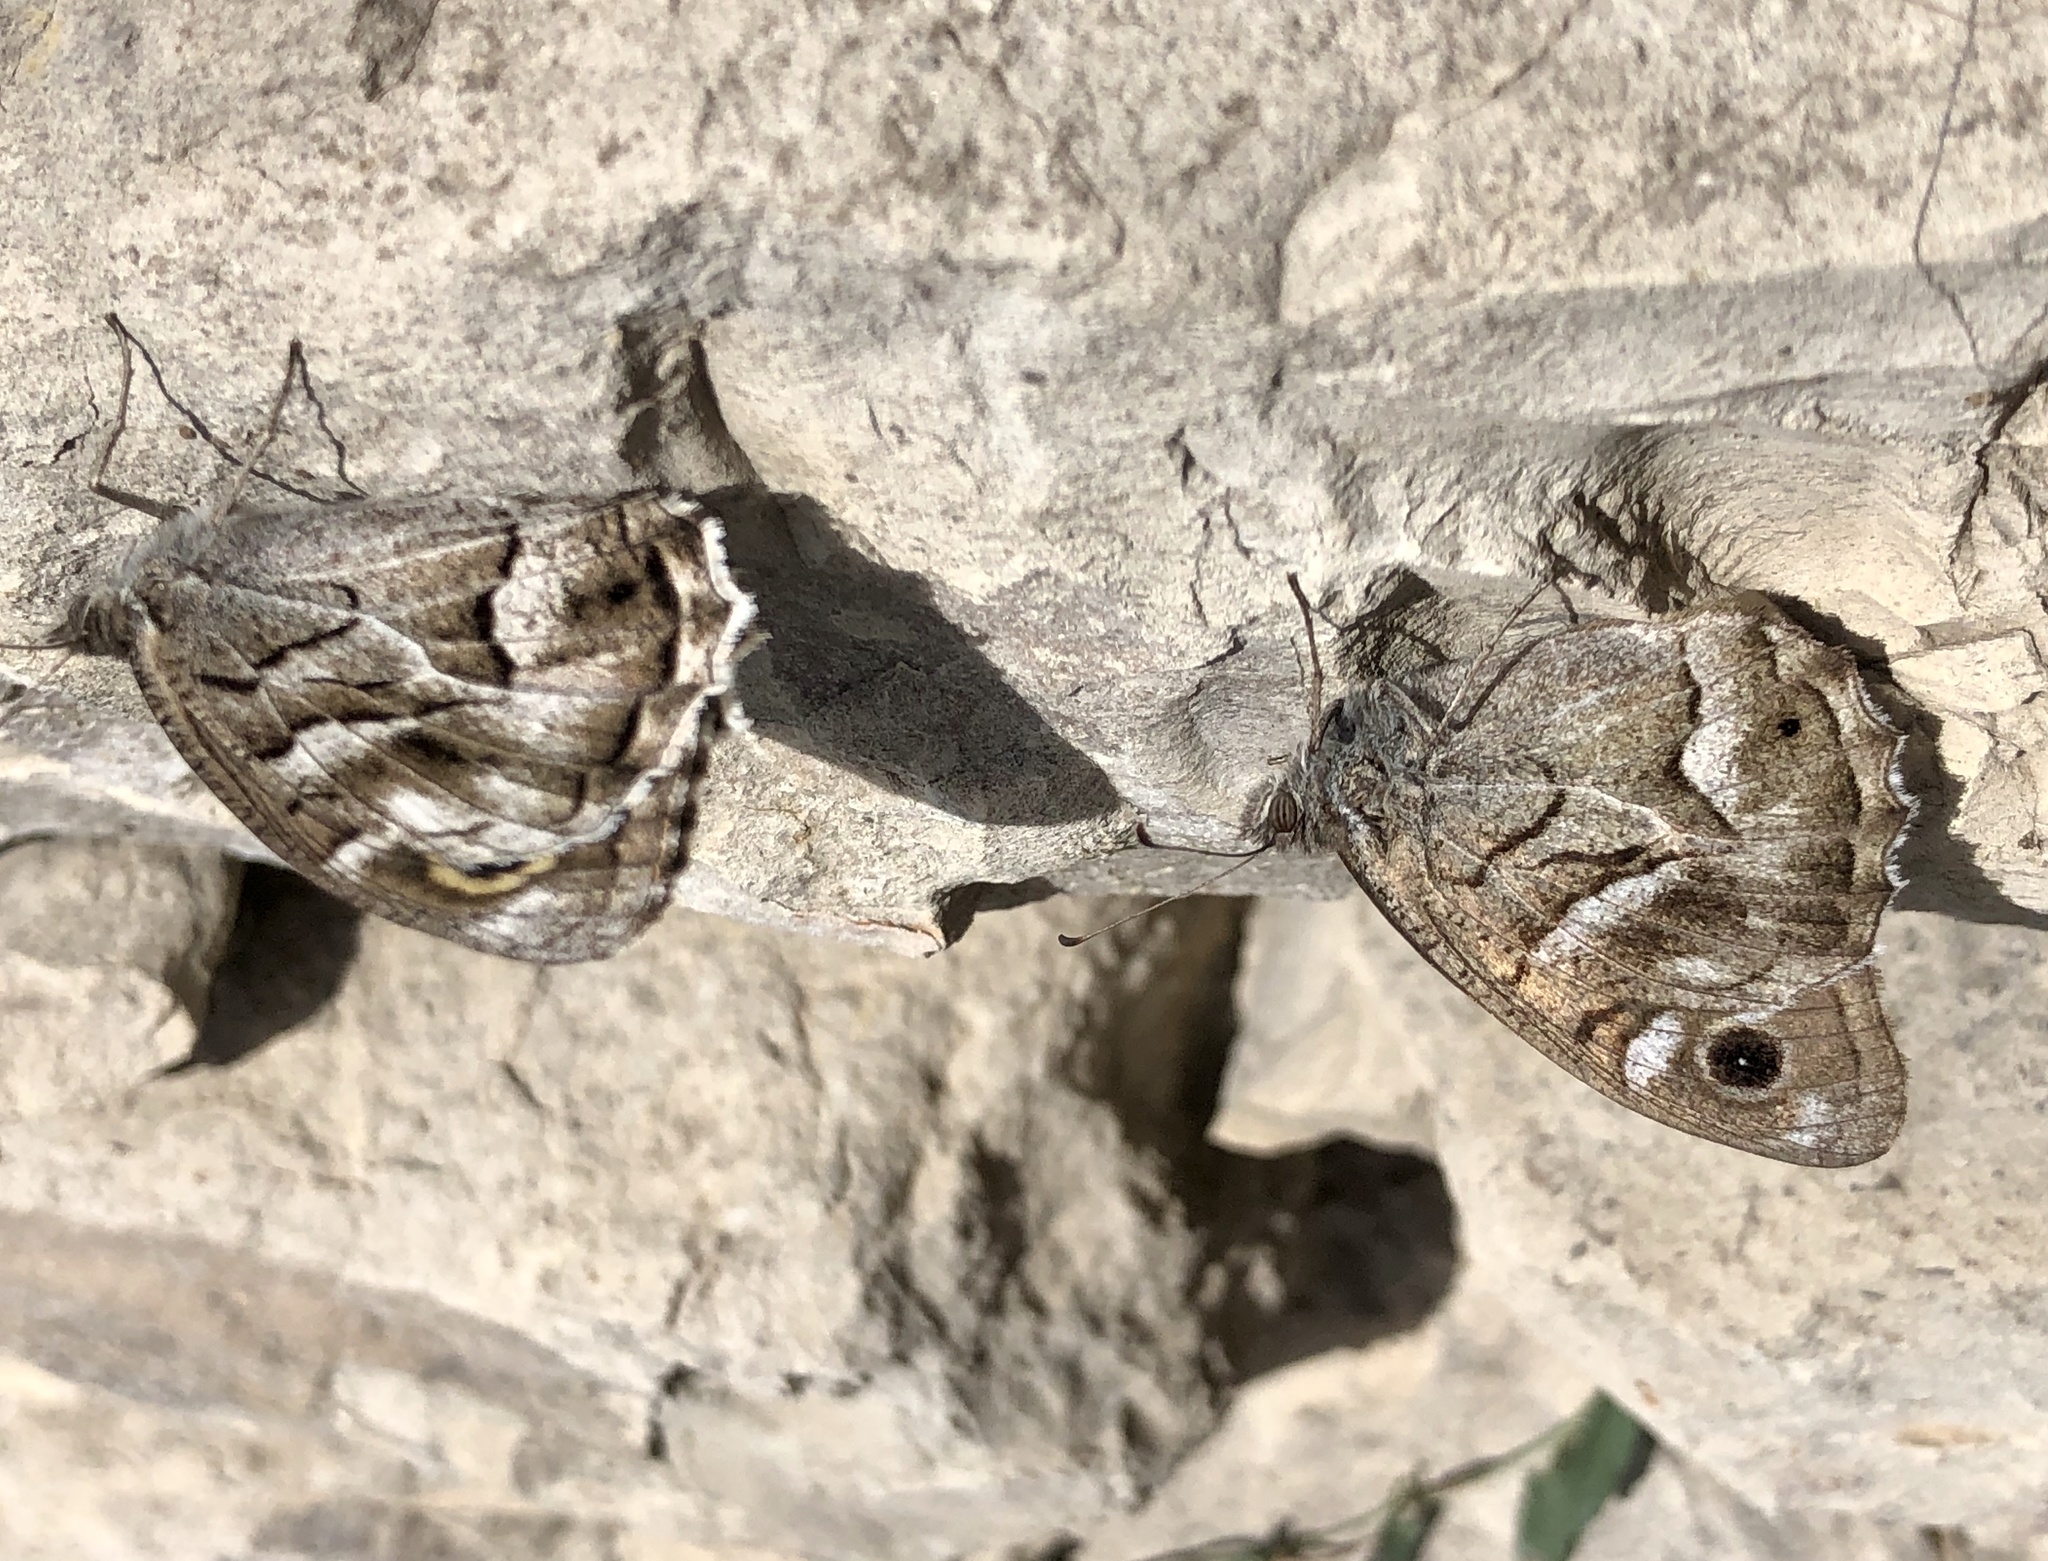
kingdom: Animalia
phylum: Arthropoda
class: Insecta
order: Lepidoptera
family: Nymphalidae
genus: Hipparchia
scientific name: Hipparchia fidia
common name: Striped grayling
